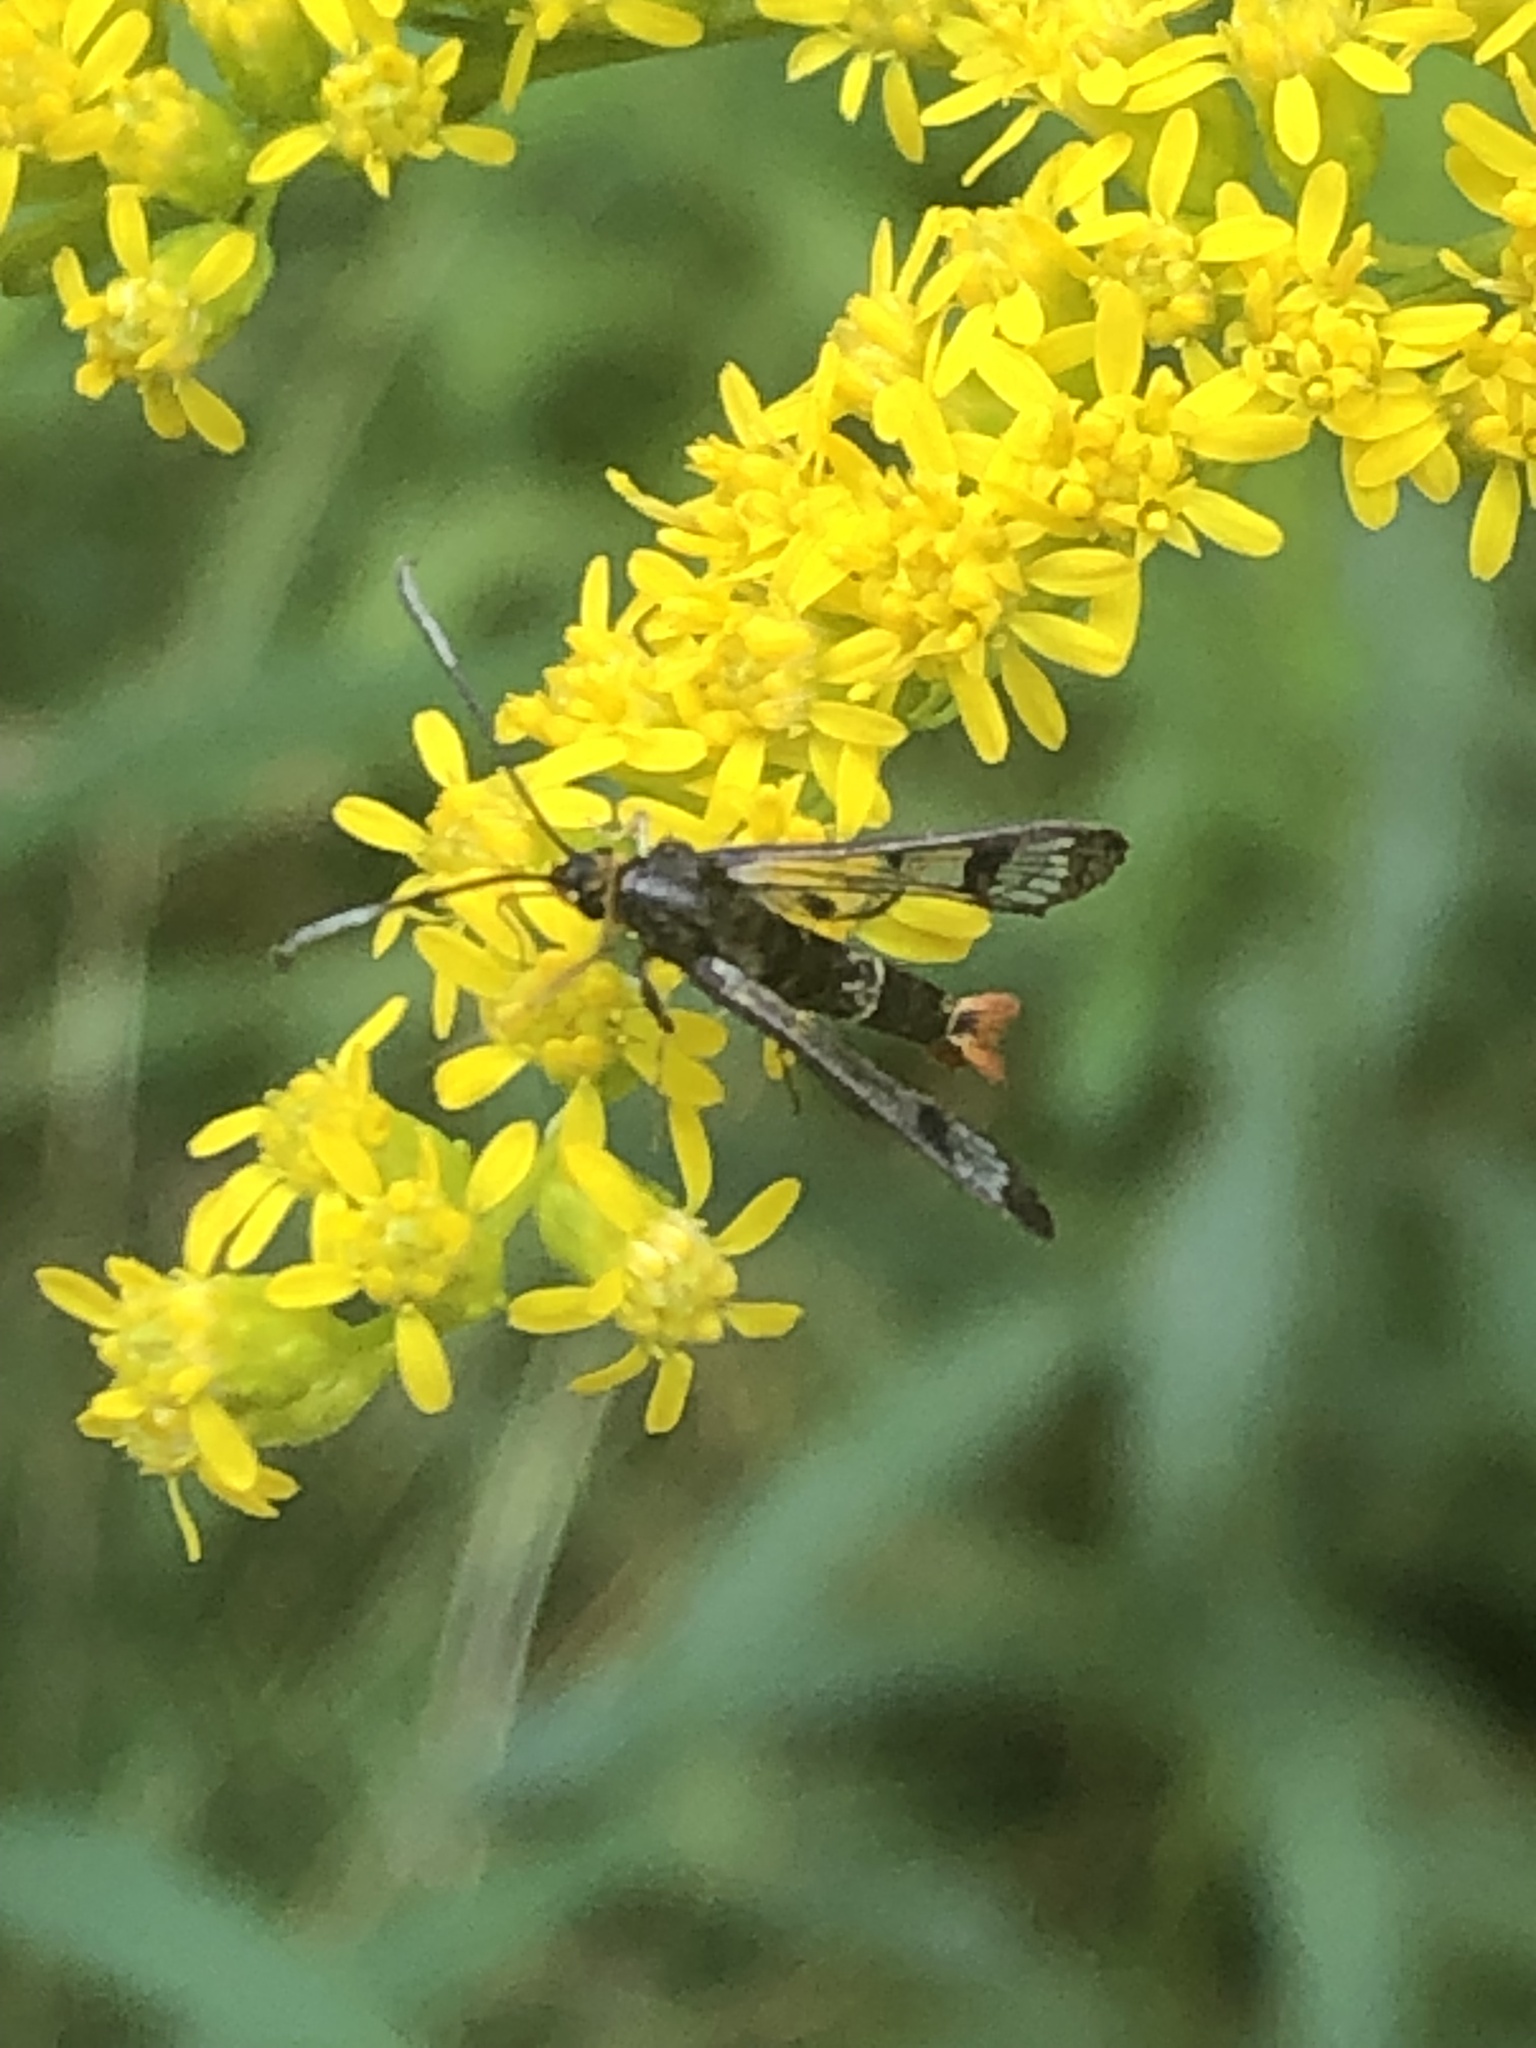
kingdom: Animalia
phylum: Arthropoda
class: Insecta
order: Lepidoptera
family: Sesiidae
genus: Synanthedon
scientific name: Synanthedon acerrubri
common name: Maple clearwing moth
